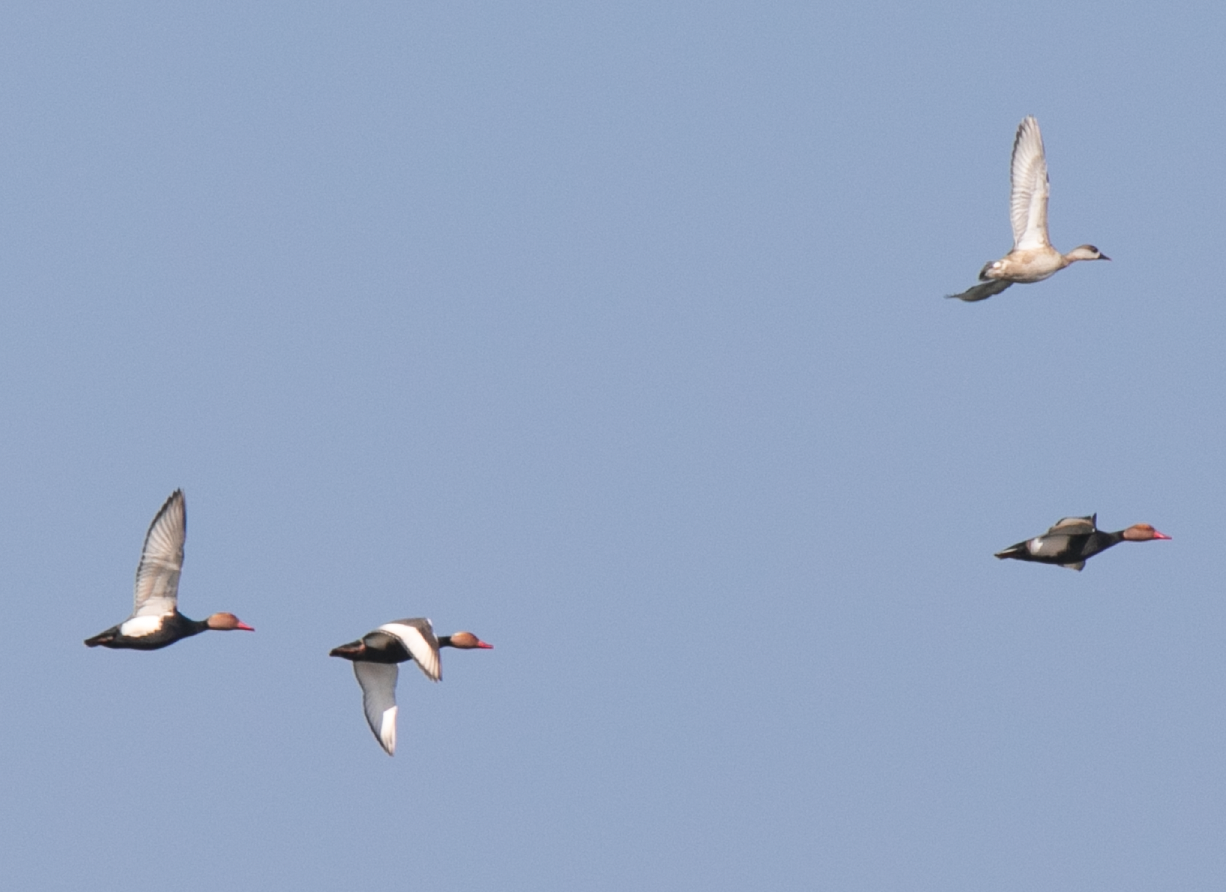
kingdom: Animalia
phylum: Chordata
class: Aves
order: Anseriformes
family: Anatidae
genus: Netta
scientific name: Netta rufina
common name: Red-crested pochard
